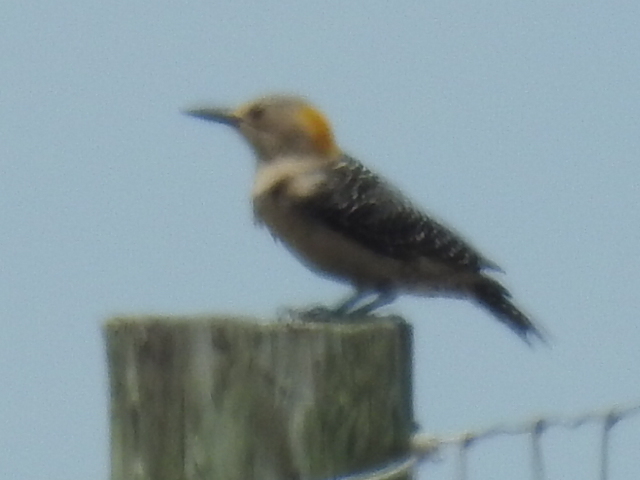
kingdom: Animalia
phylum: Chordata
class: Aves
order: Piciformes
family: Picidae
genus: Melanerpes
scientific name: Melanerpes aurifrons
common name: Golden-fronted woodpecker
